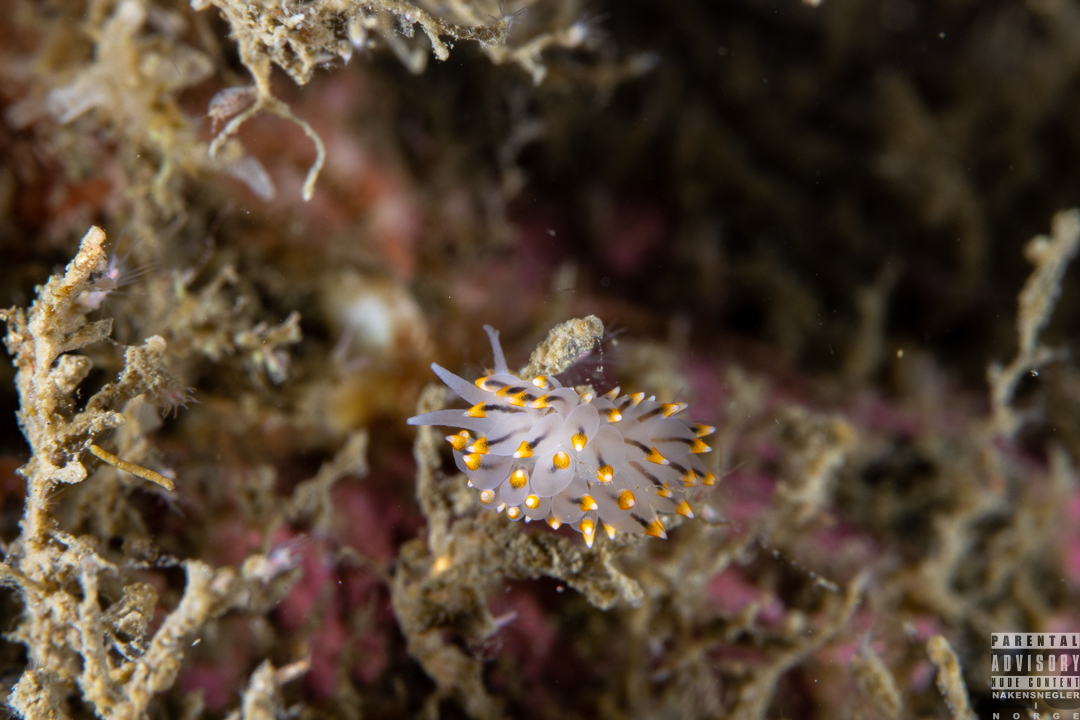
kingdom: Animalia
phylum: Mollusca
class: Gastropoda
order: Nudibranchia
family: Eubranchidae
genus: Eubranchus
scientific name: Eubranchus tricolor
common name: Painted balloon aeolis
